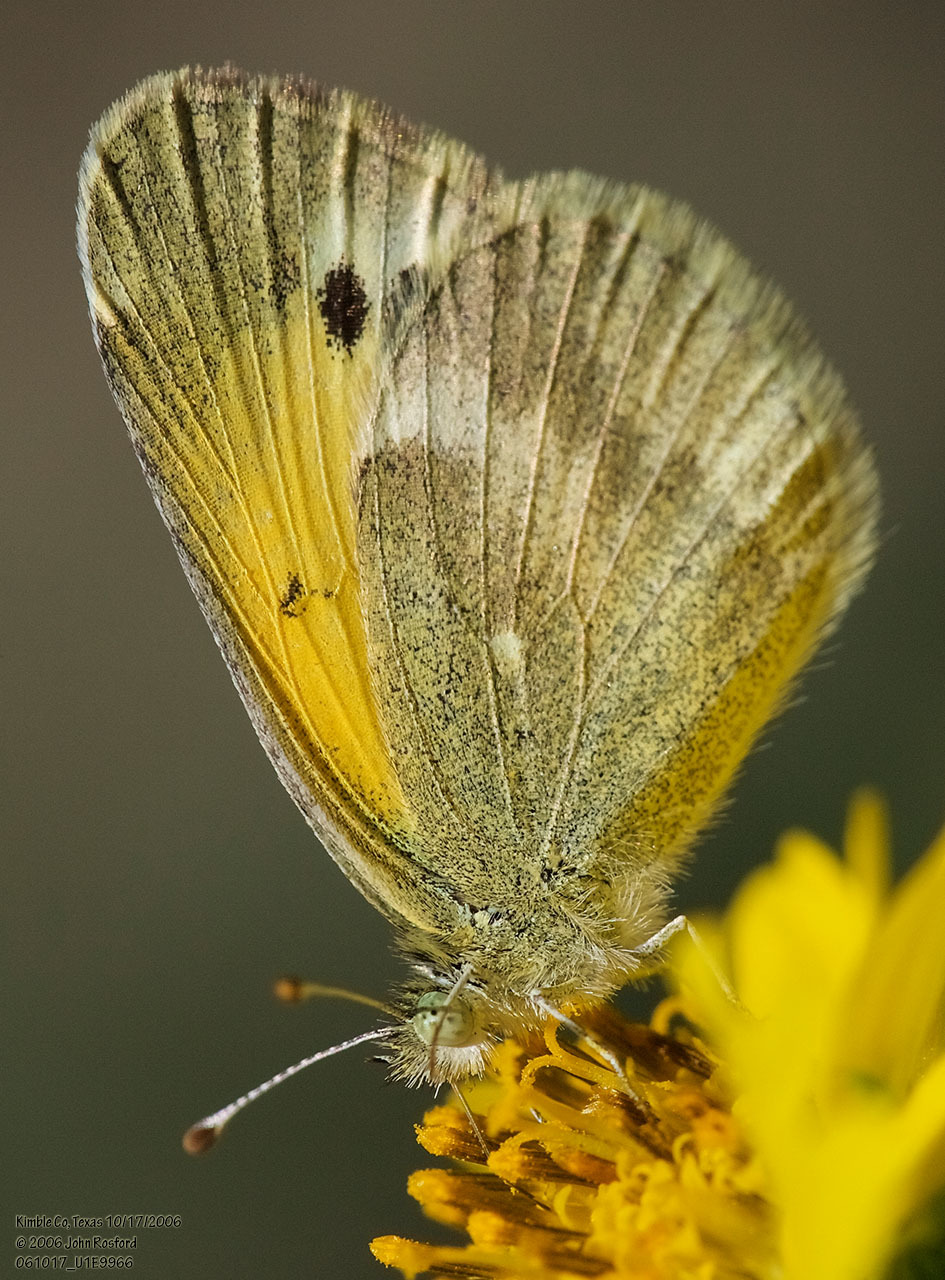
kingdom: Animalia
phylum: Arthropoda
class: Insecta
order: Lepidoptera
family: Pieridae
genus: Nathalis
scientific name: Nathalis iole
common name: Dainty sulphur
